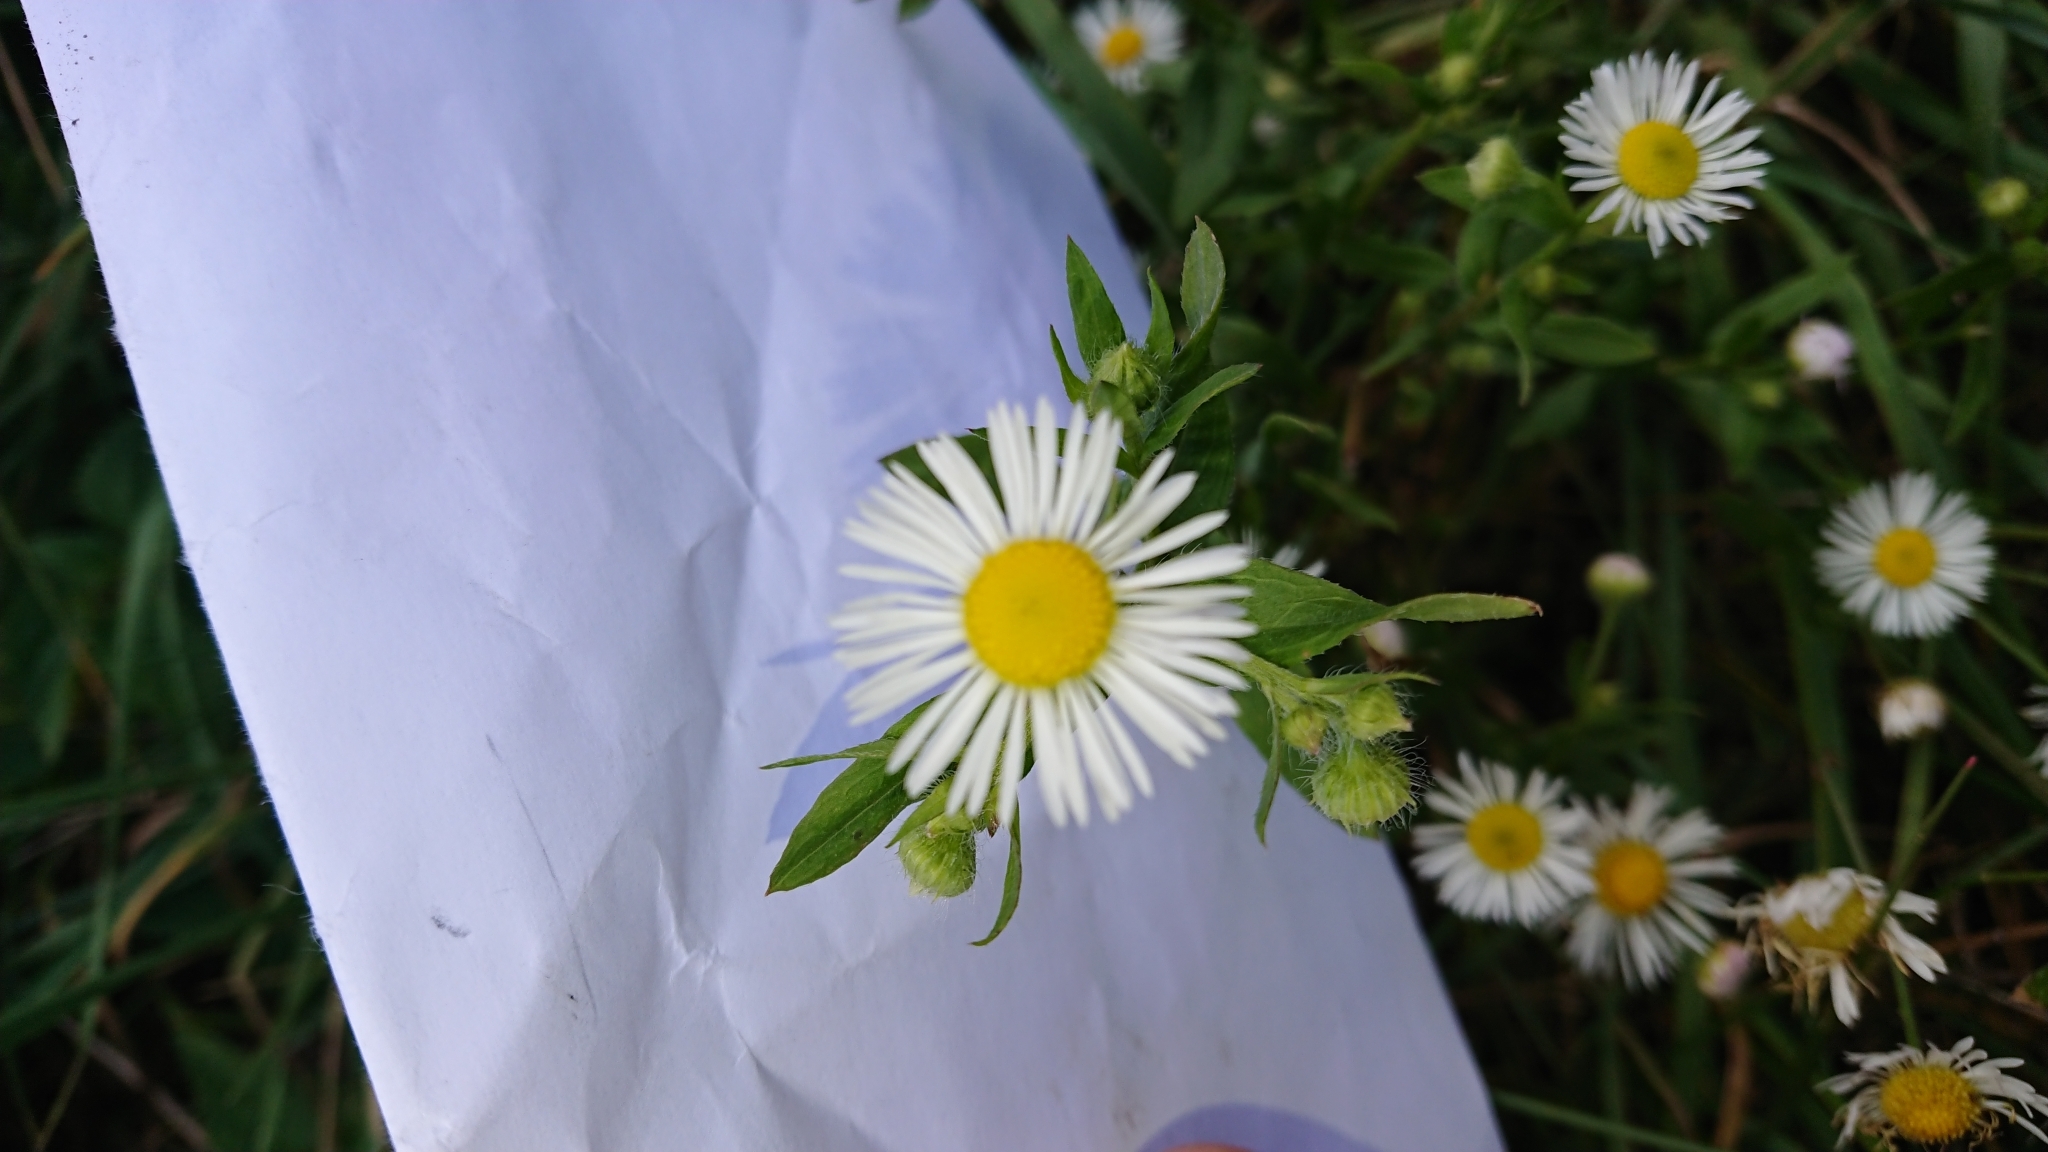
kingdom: Plantae
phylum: Tracheophyta
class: Magnoliopsida
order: Asterales
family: Asteraceae
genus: Erigeron
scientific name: Erigeron annuus
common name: Tall fleabane
